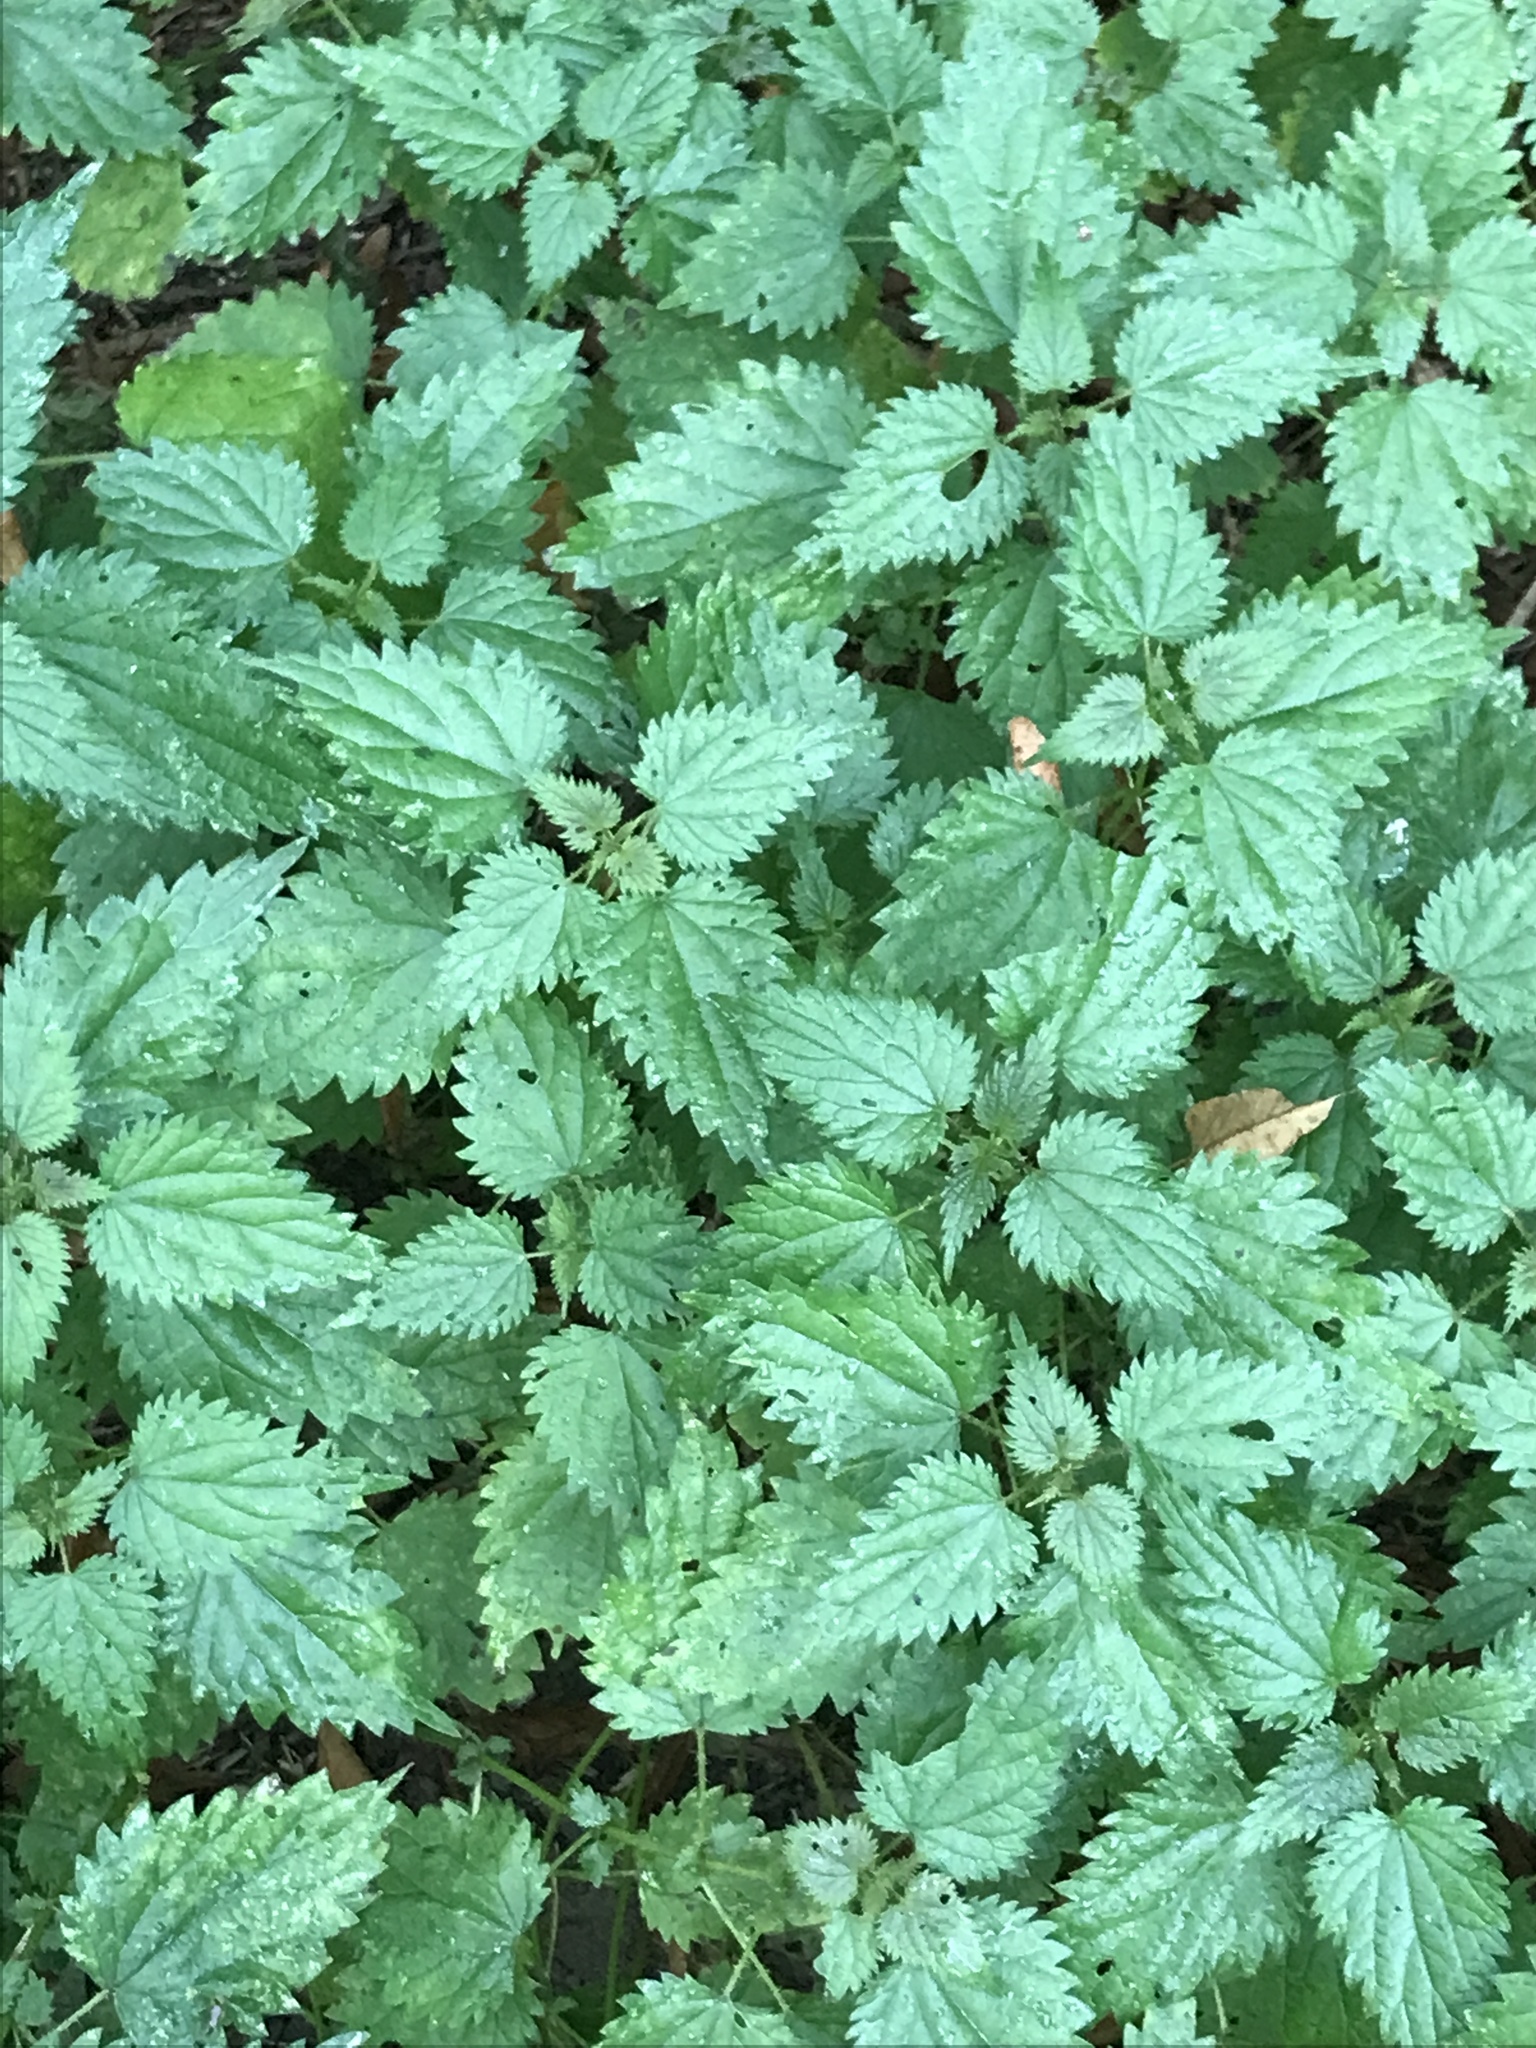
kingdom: Plantae
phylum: Tracheophyta
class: Magnoliopsida
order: Rosales
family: Urticaceae
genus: Urtica
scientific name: Urtica dioica
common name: Common nettle
